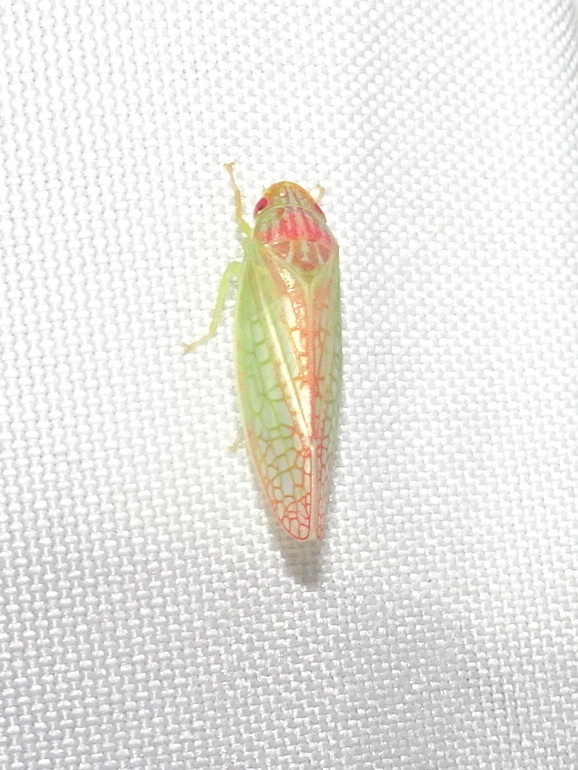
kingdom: Animalia
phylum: Arthropoda
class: Insecta
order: Hemiptera
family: Cicadellidae
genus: Gyponana
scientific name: Gyponana octolineata
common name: Eight-lined leafhopper
